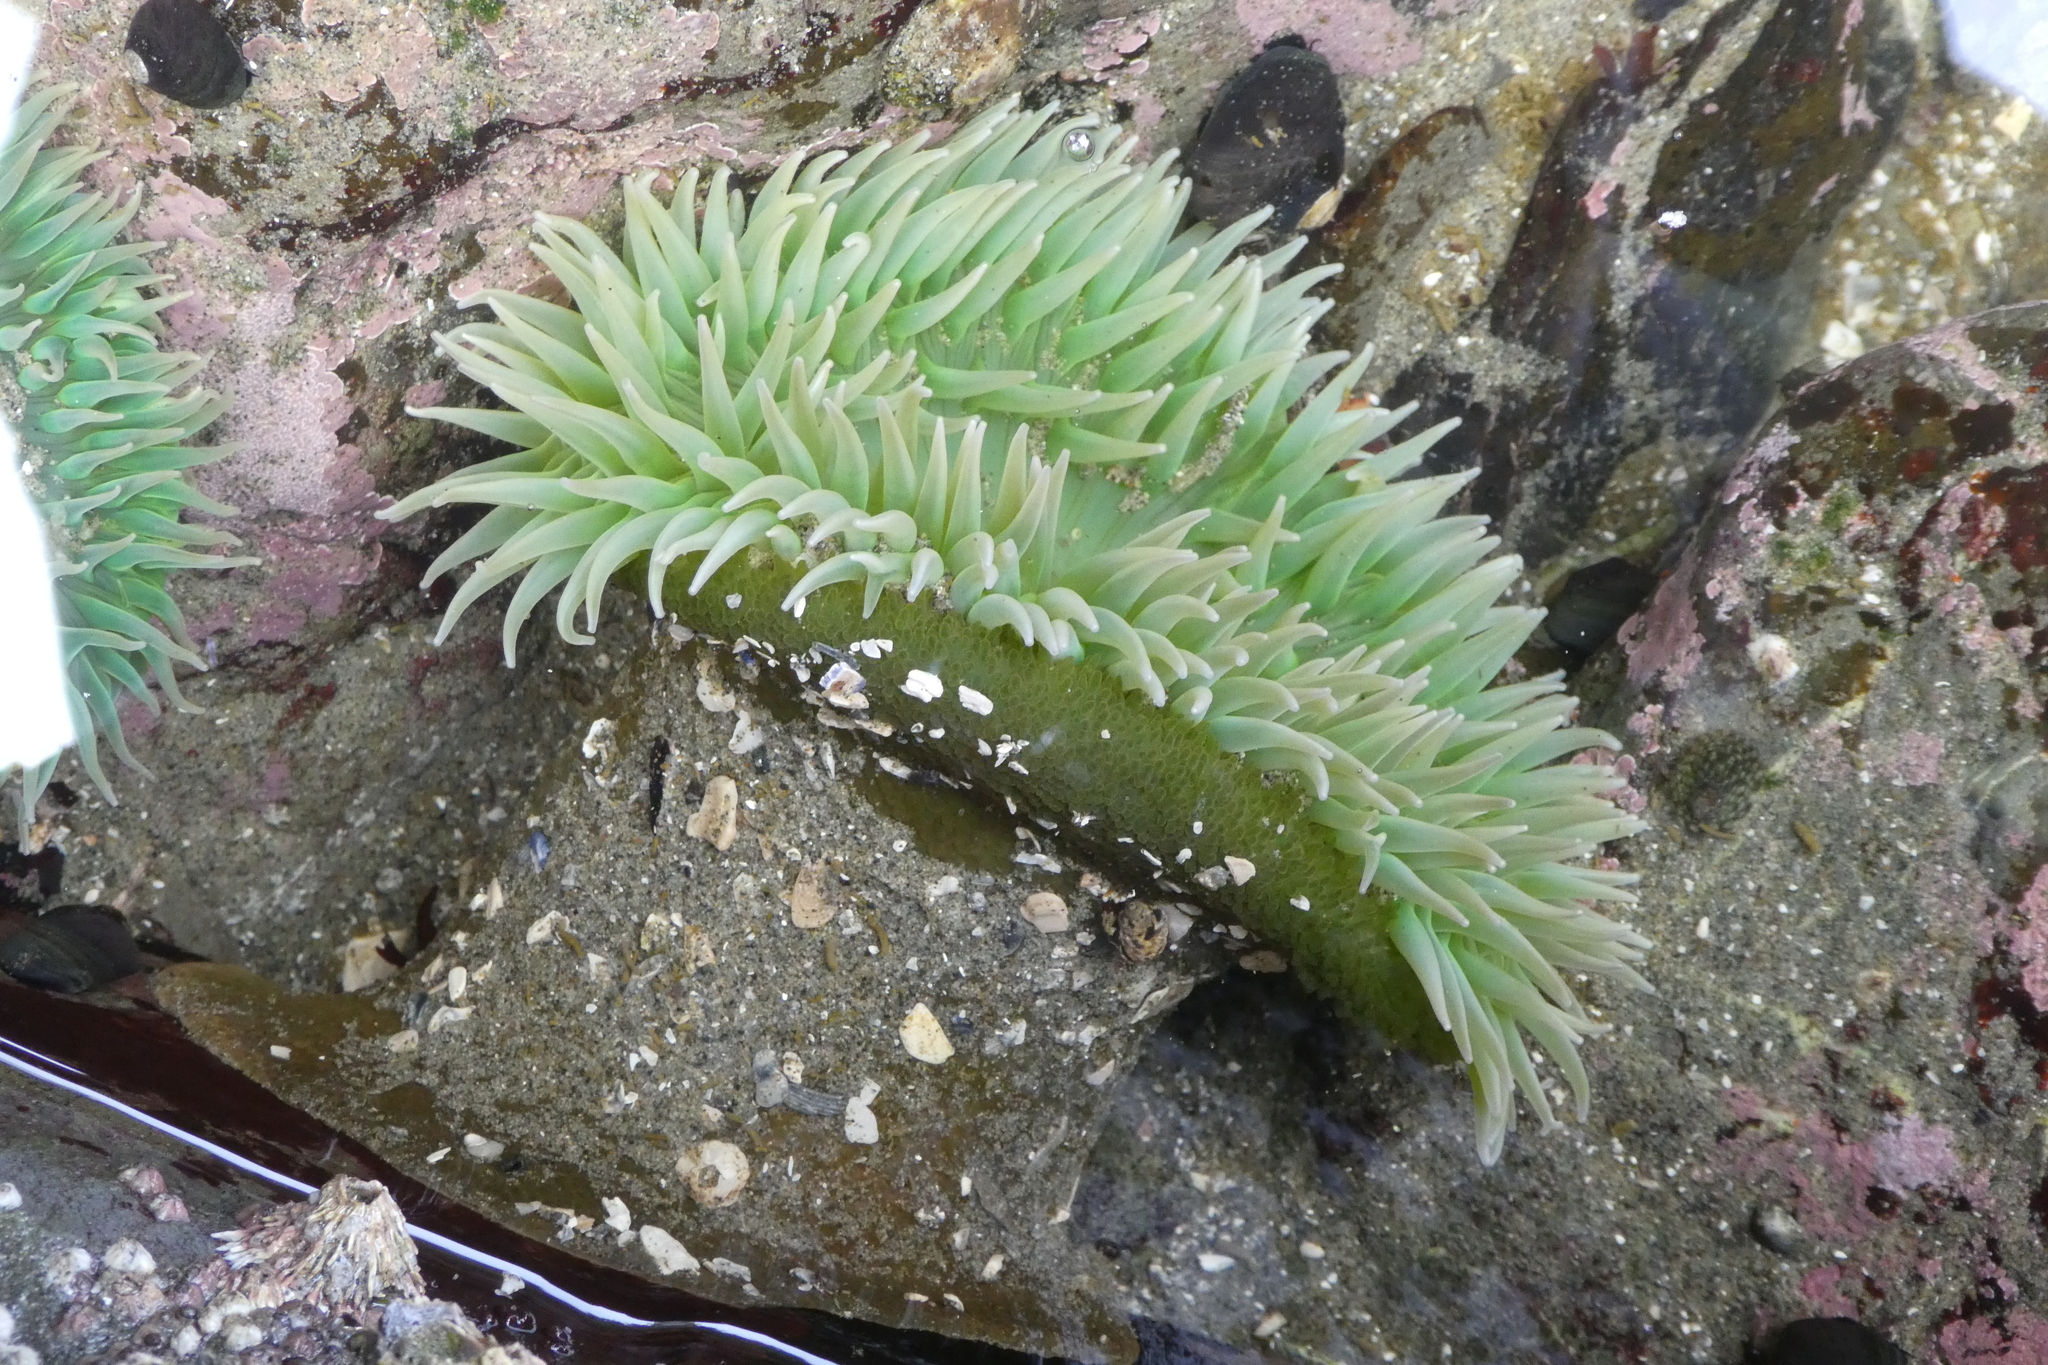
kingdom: Animalia
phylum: Cnidaria
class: Anthozoa
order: Actiniaria
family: Actiniidae
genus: Anthopleura
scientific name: Anthopleura xanthogrammica
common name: Giant green anemone
